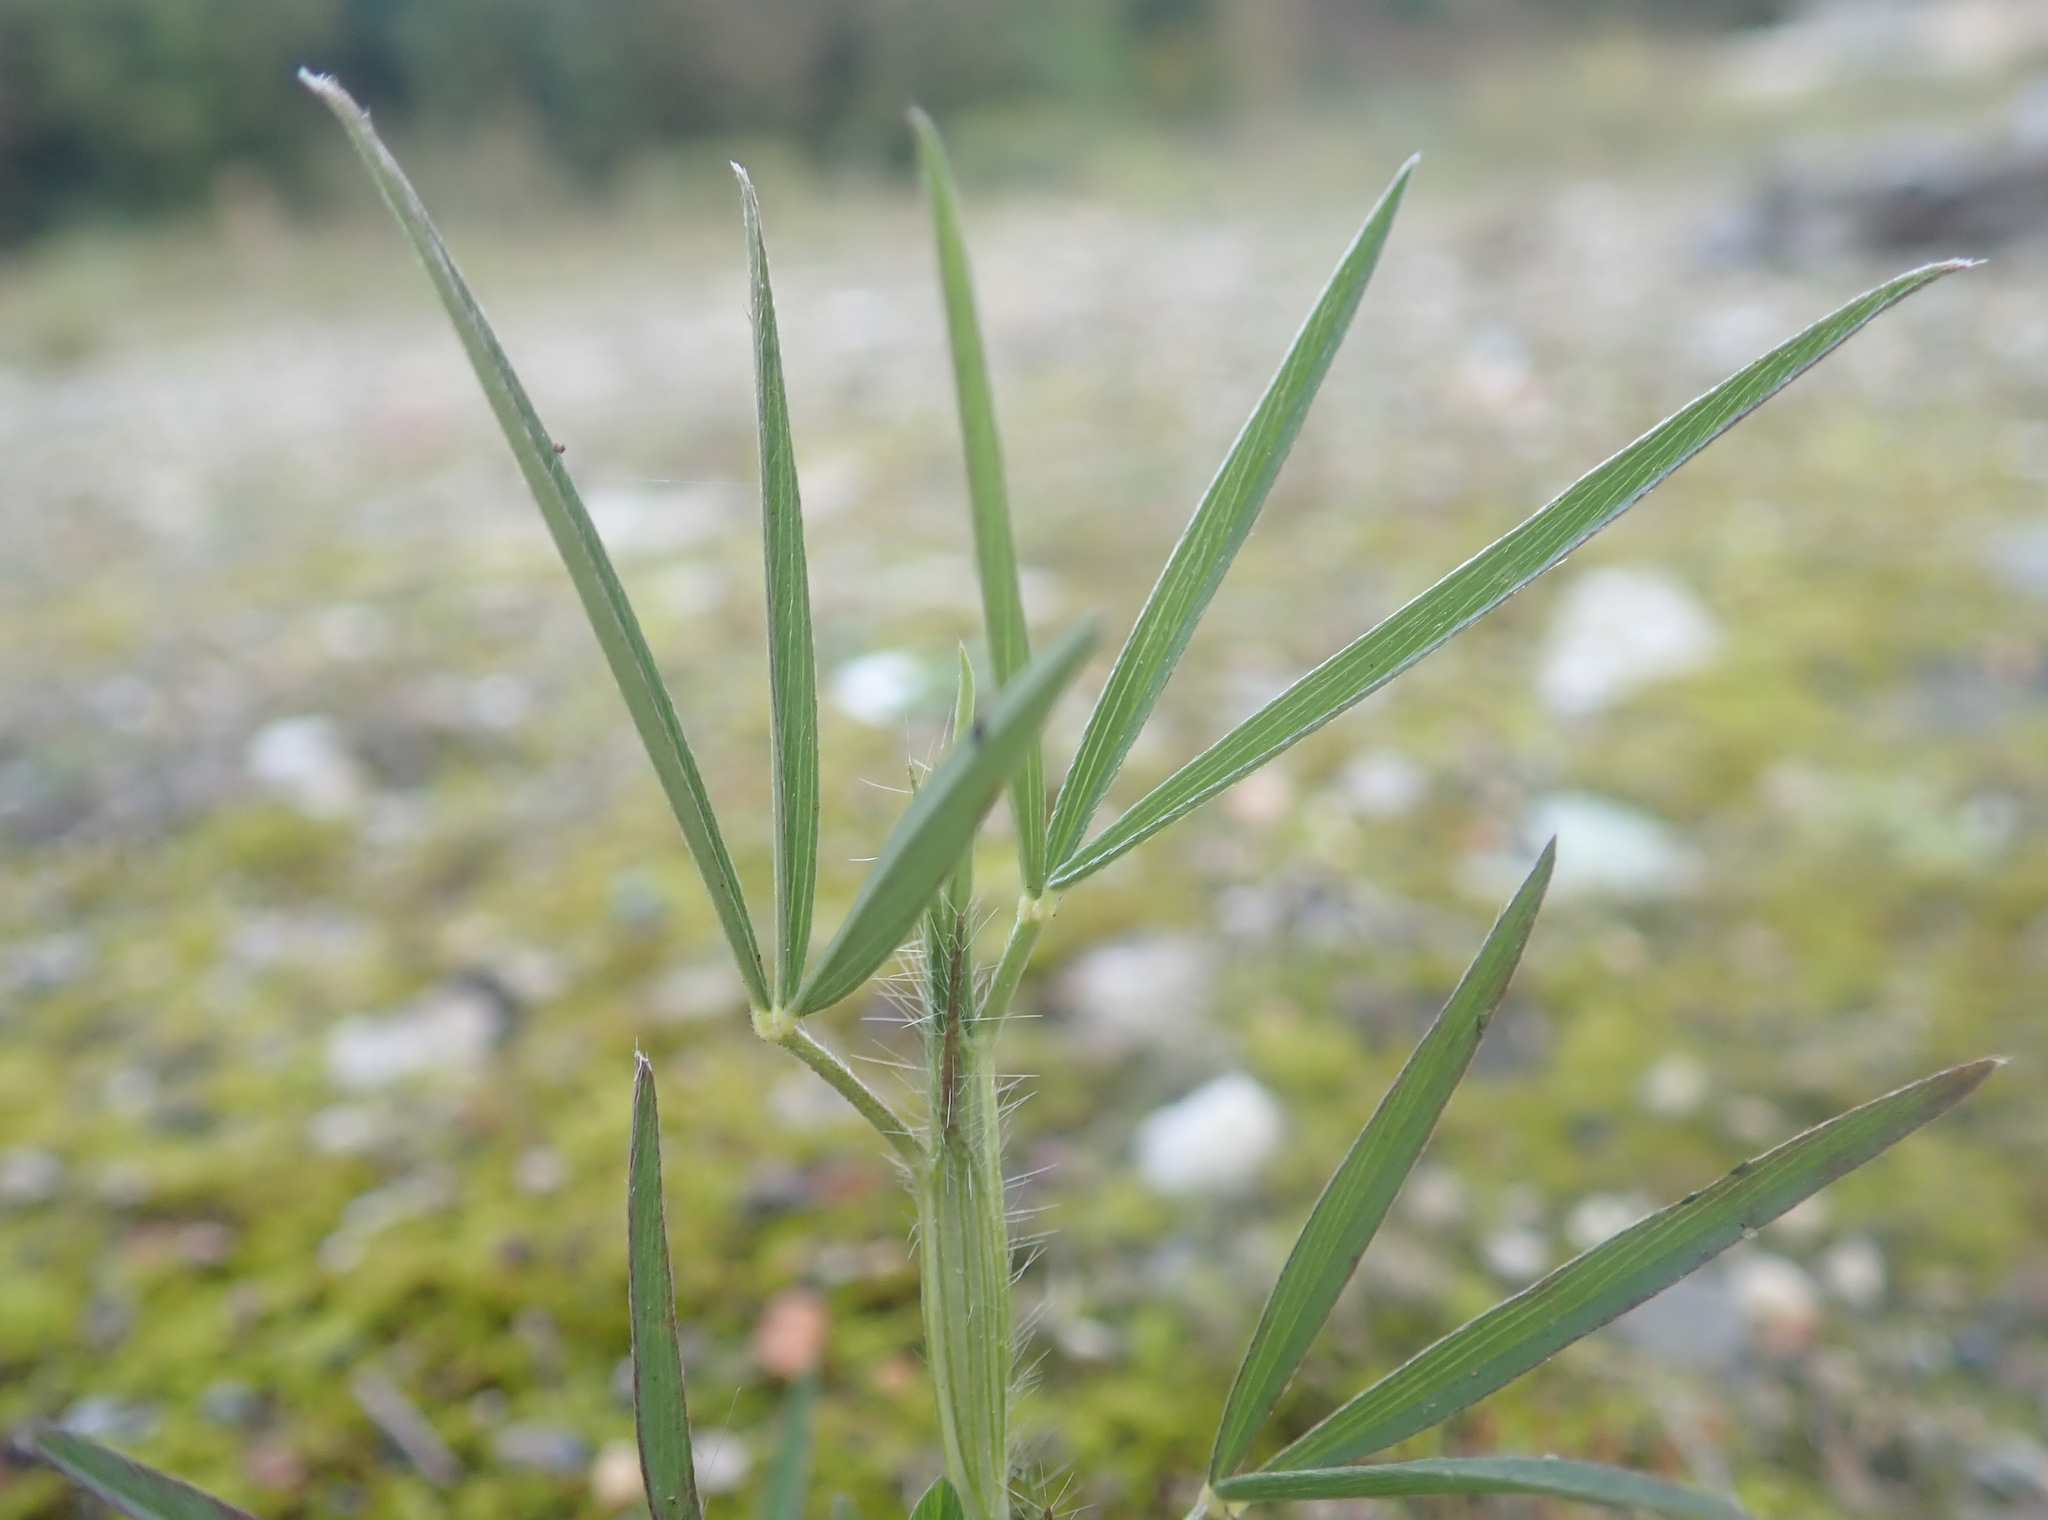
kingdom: Plantae
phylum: Tracheophyta
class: Magnoliopsida
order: Fabales
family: Fabaceae
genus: Trifolium
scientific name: Trifolium angustifolium
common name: Narrow clover
